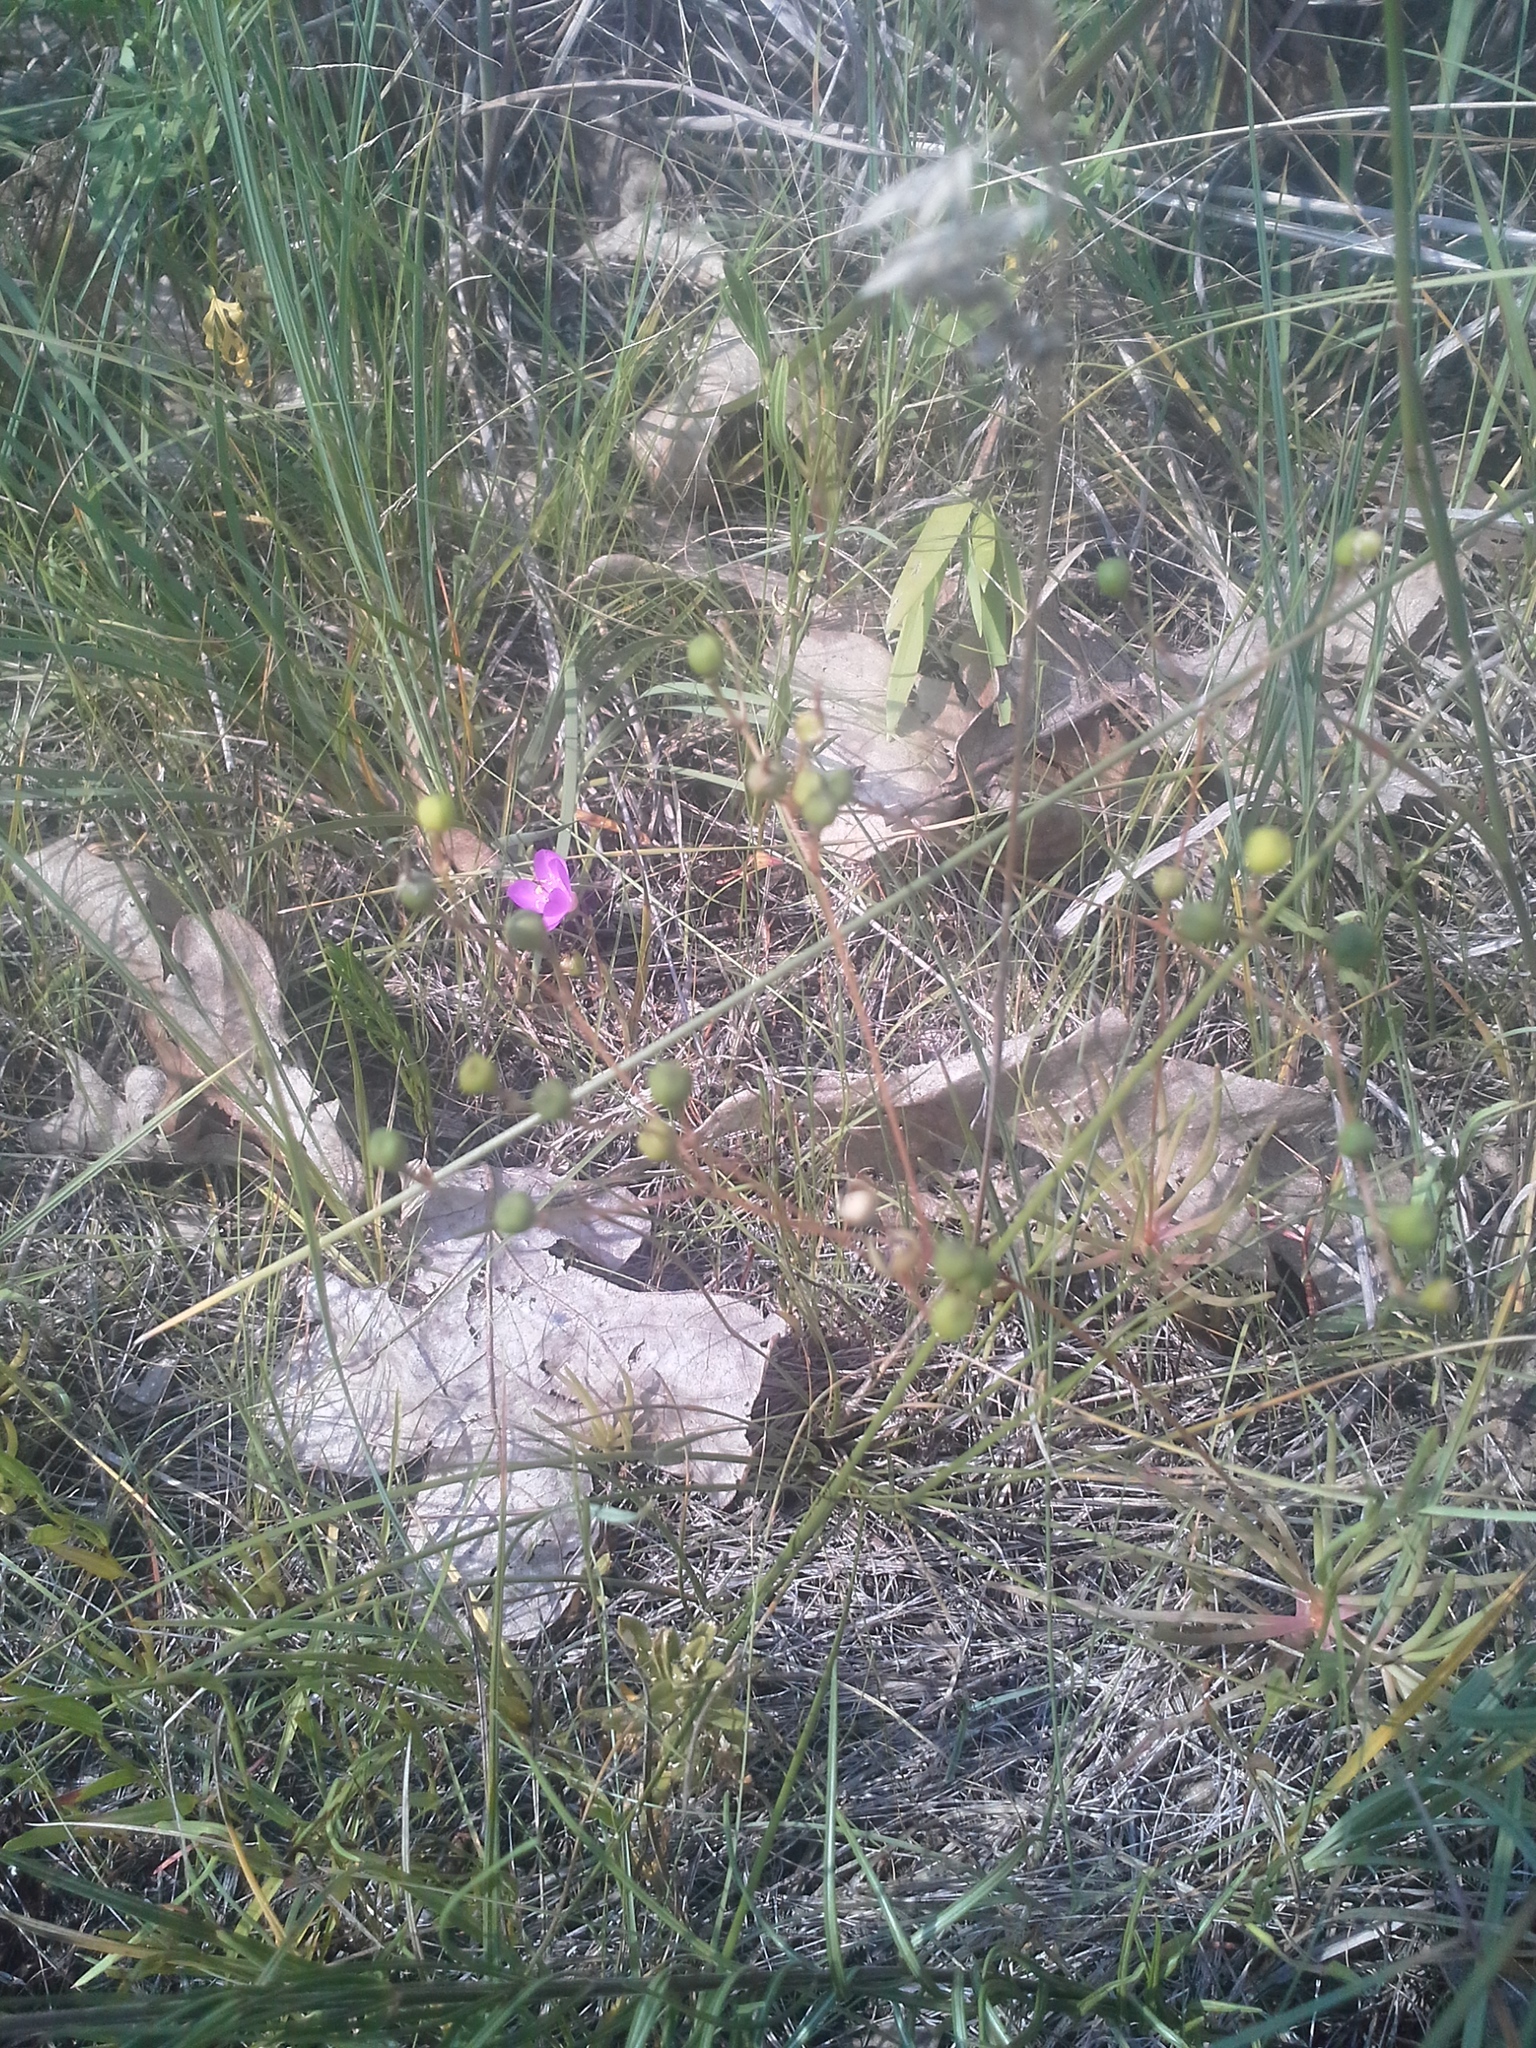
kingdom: Plantae
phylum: Tracheophyta
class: Magnoliopsida
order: Caryophyllales
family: Montiaceae
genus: Phemeranthus
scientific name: Phemeranthus teretifolius
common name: Quill fameflower
